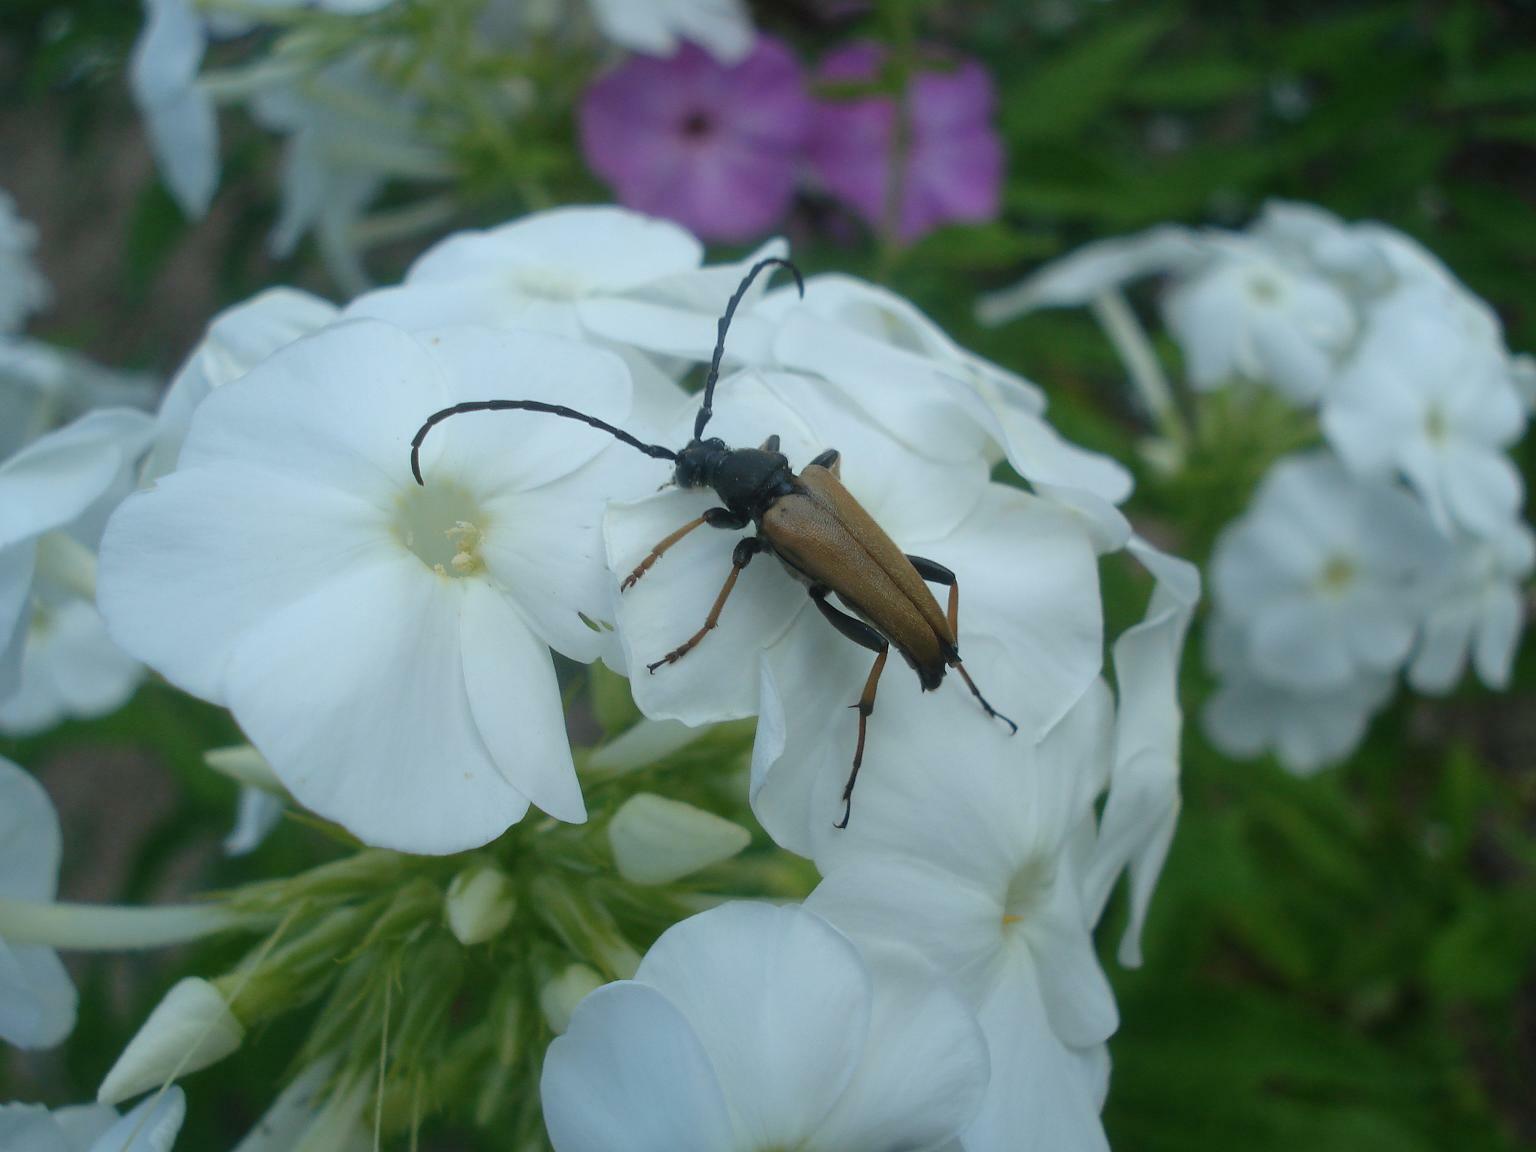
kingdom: Animalia
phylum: Arthropoda
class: Insecta
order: Coleoptera
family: Cerambycidae
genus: Stictoleptura
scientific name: Stictoleptura rubra
